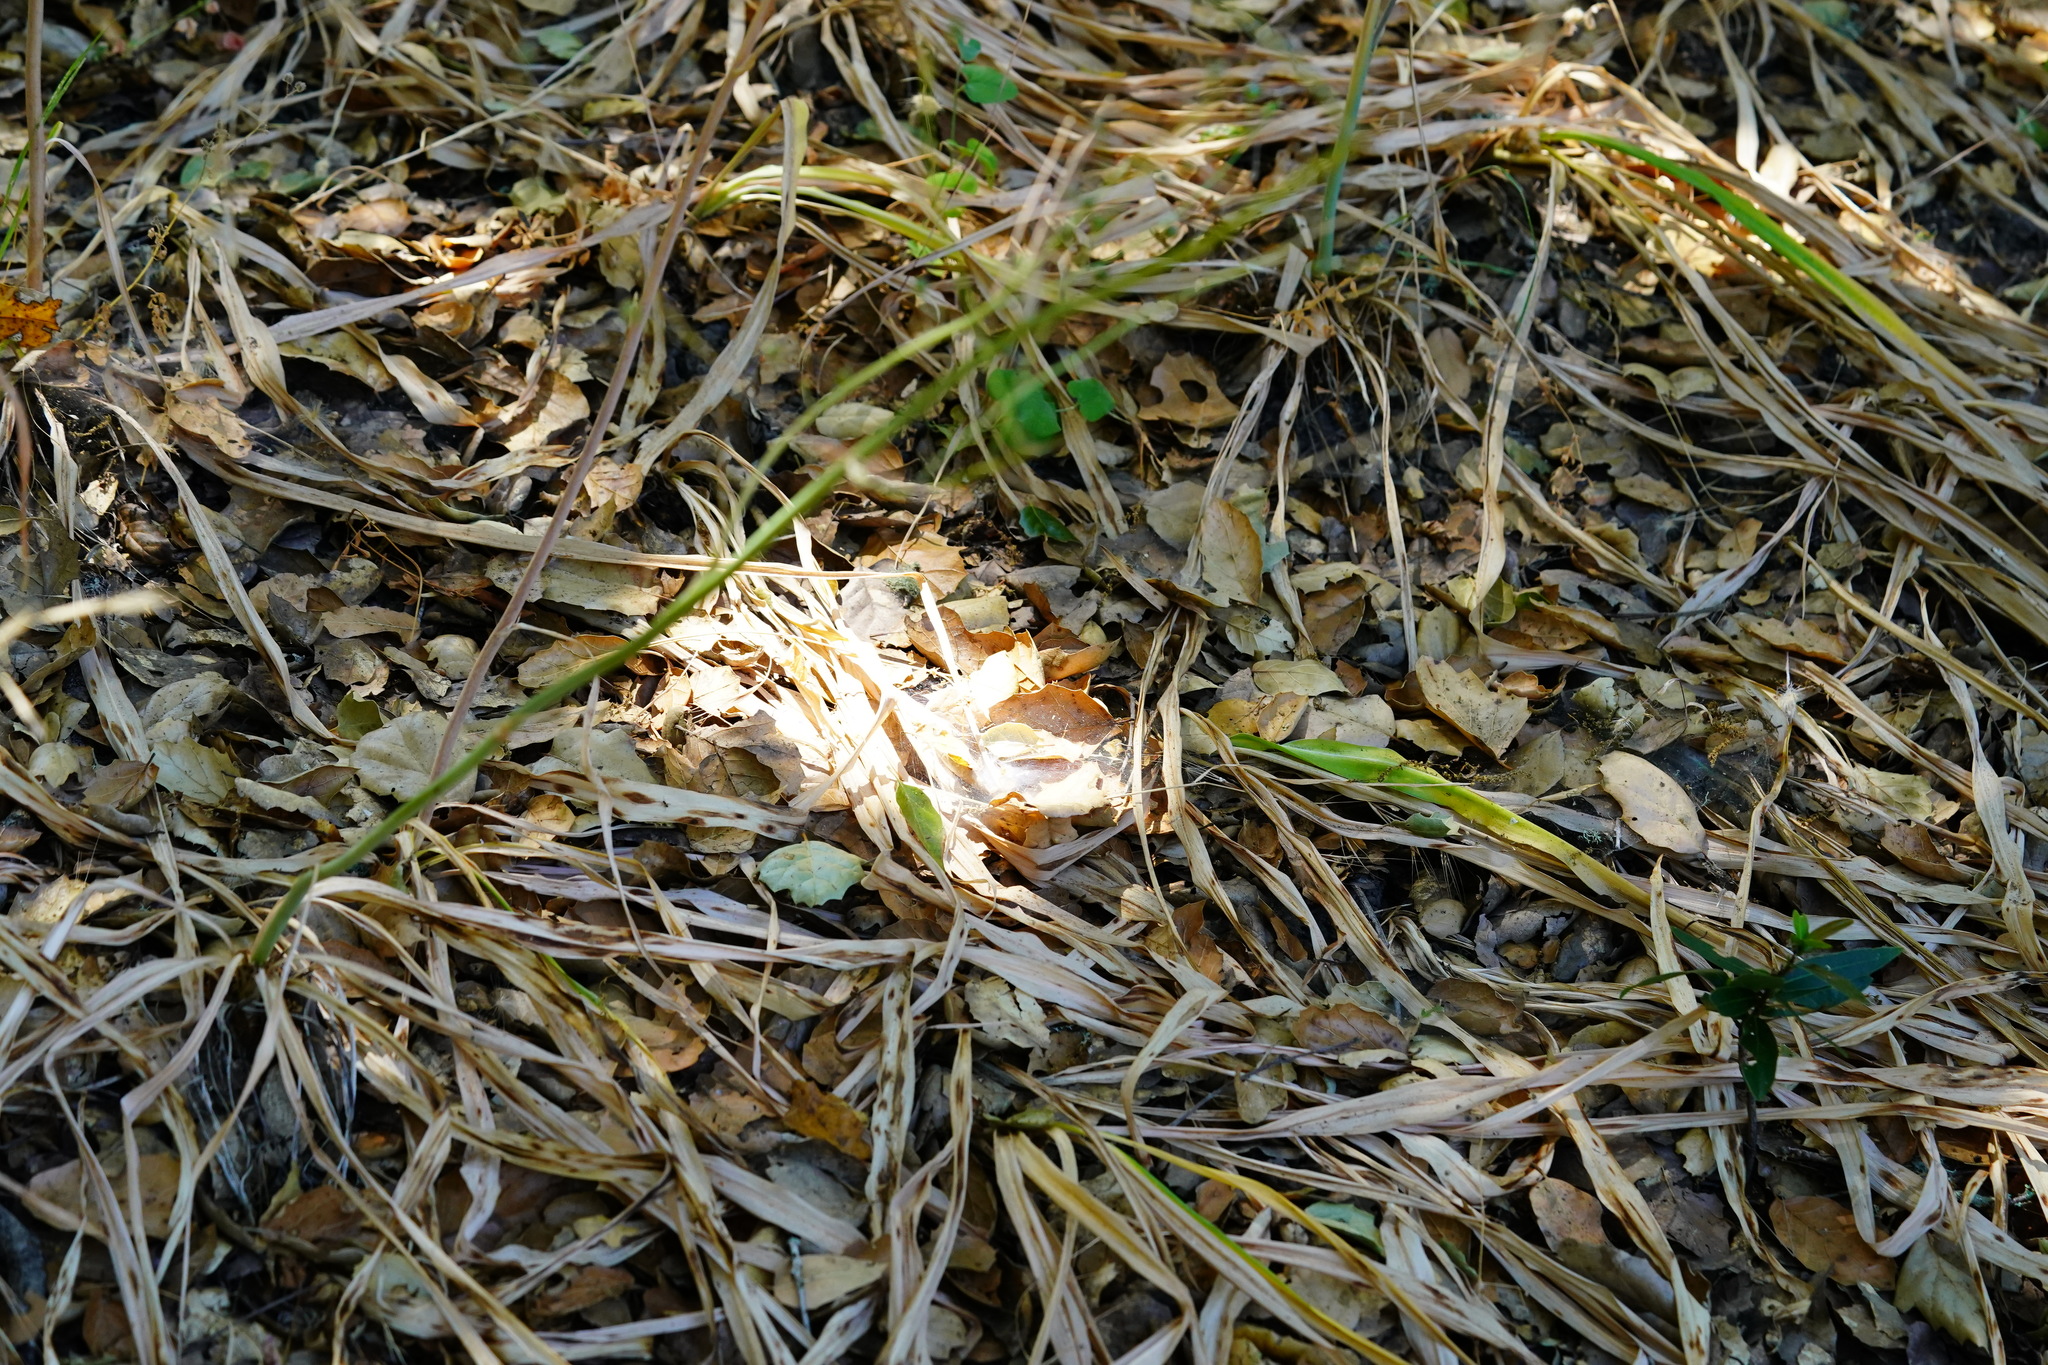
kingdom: Plantae
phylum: Tracheophyta
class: Liliopsida
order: Asparagales
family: Asparagaceae
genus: Chlorogalum
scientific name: Chlorogalum pomeridianum
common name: Amole
